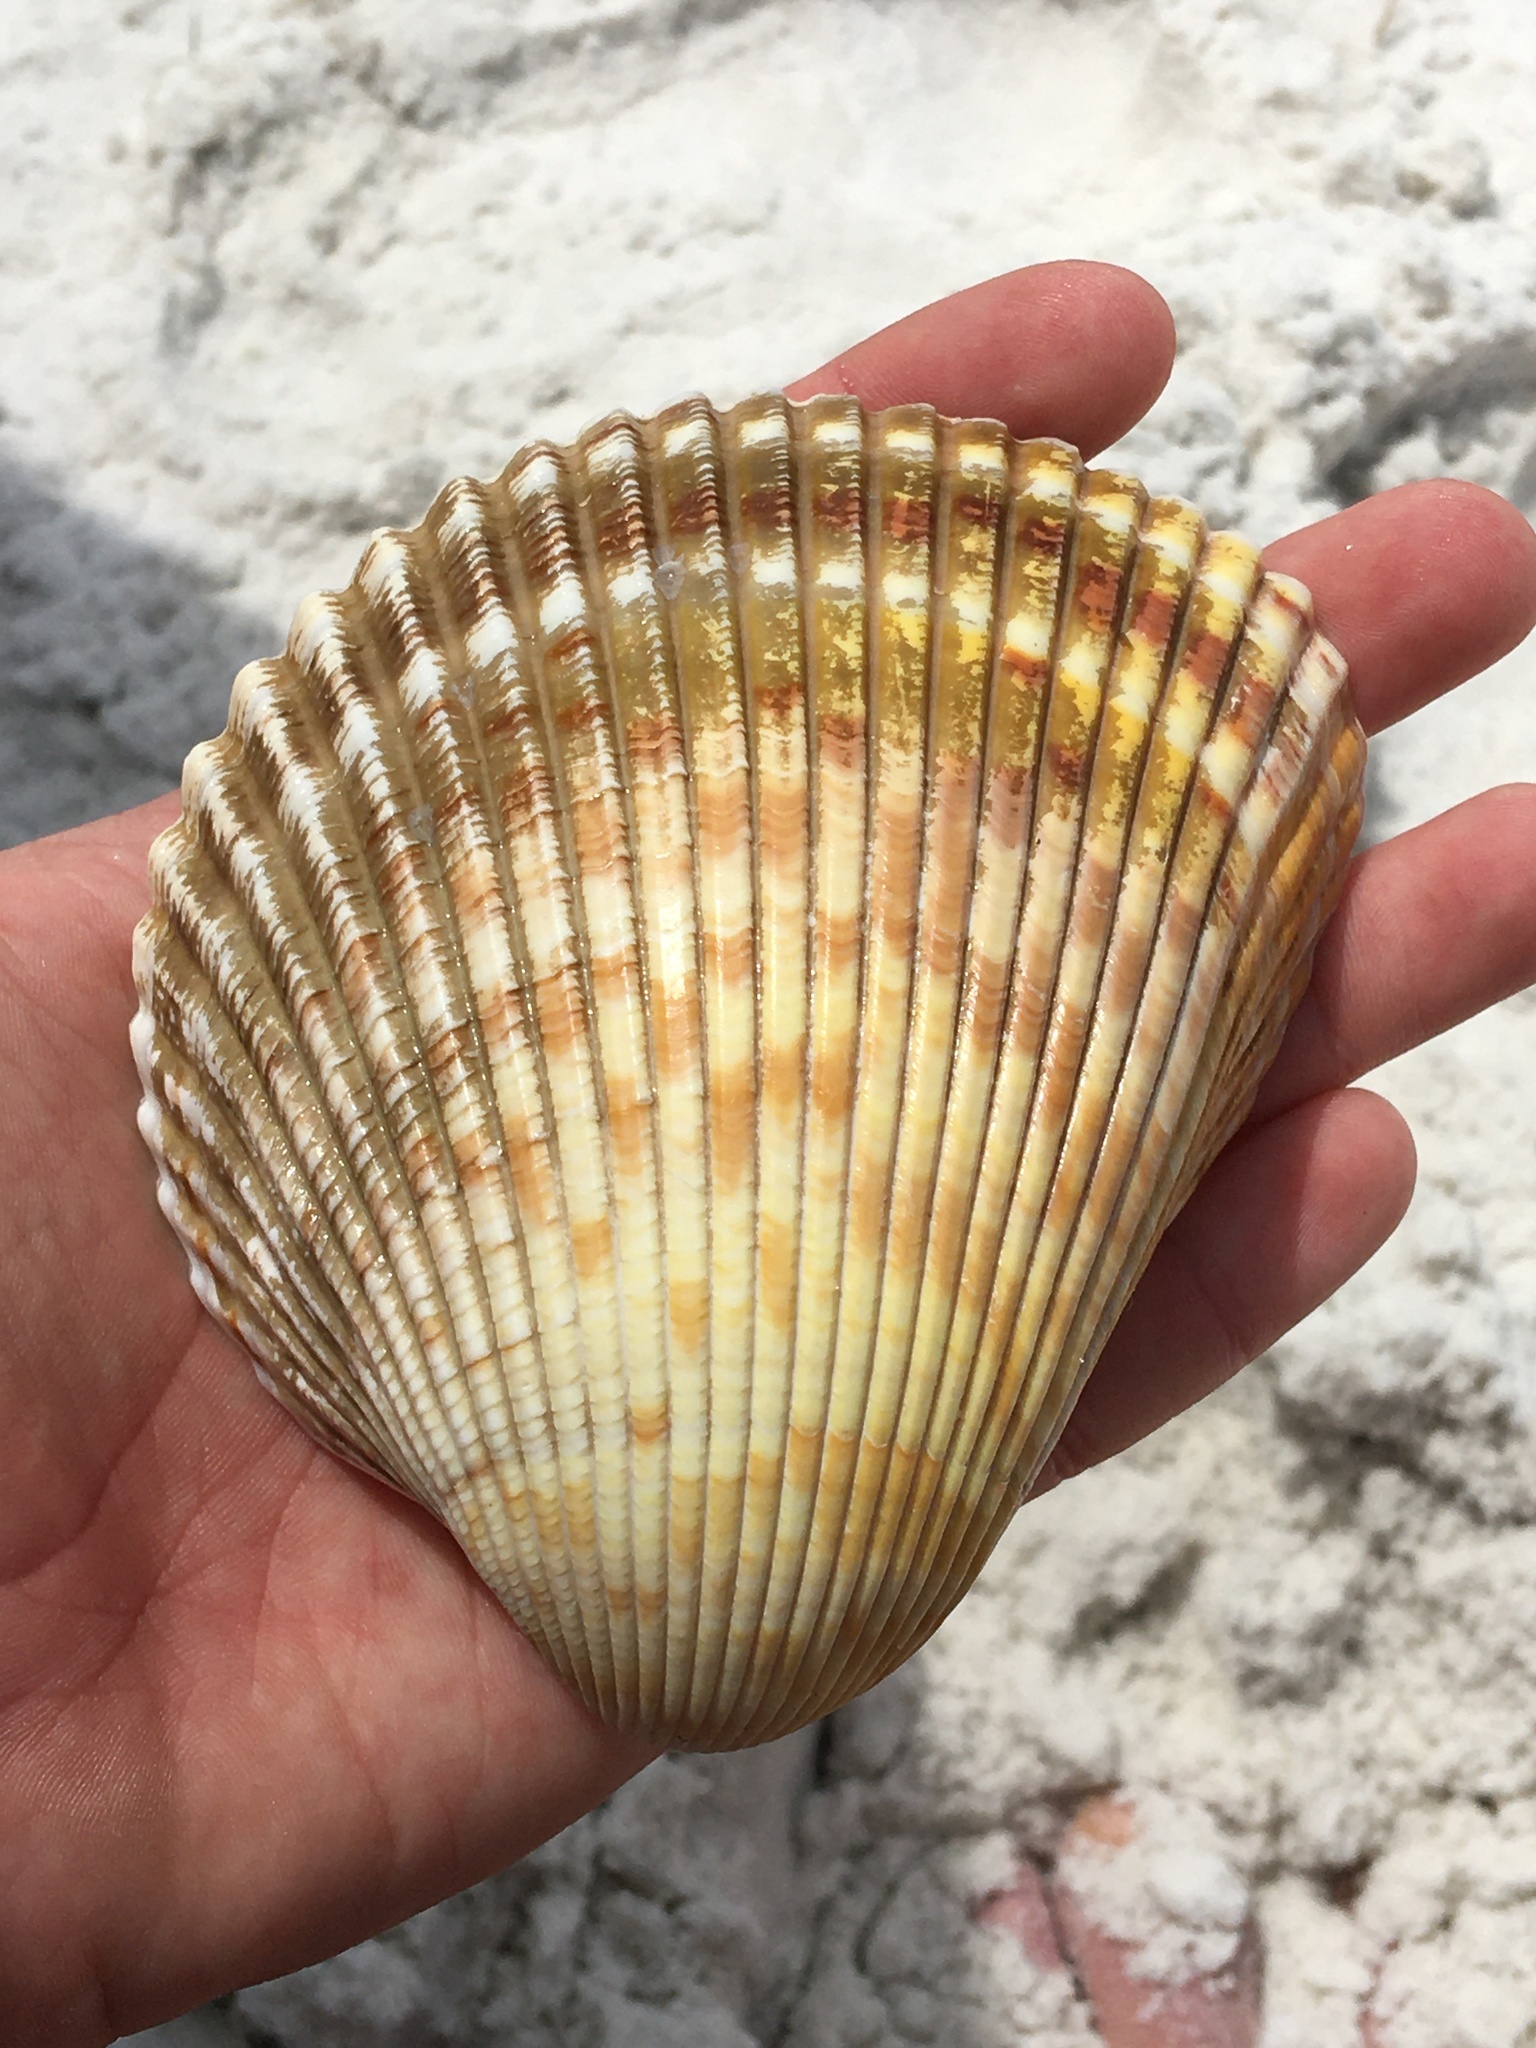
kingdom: Animalia
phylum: Mollusca
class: Bivalvia
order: Cardiida
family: Cardiidae
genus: Dinocardium
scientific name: Dinocardium robustum
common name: Atlantic giant cockle
